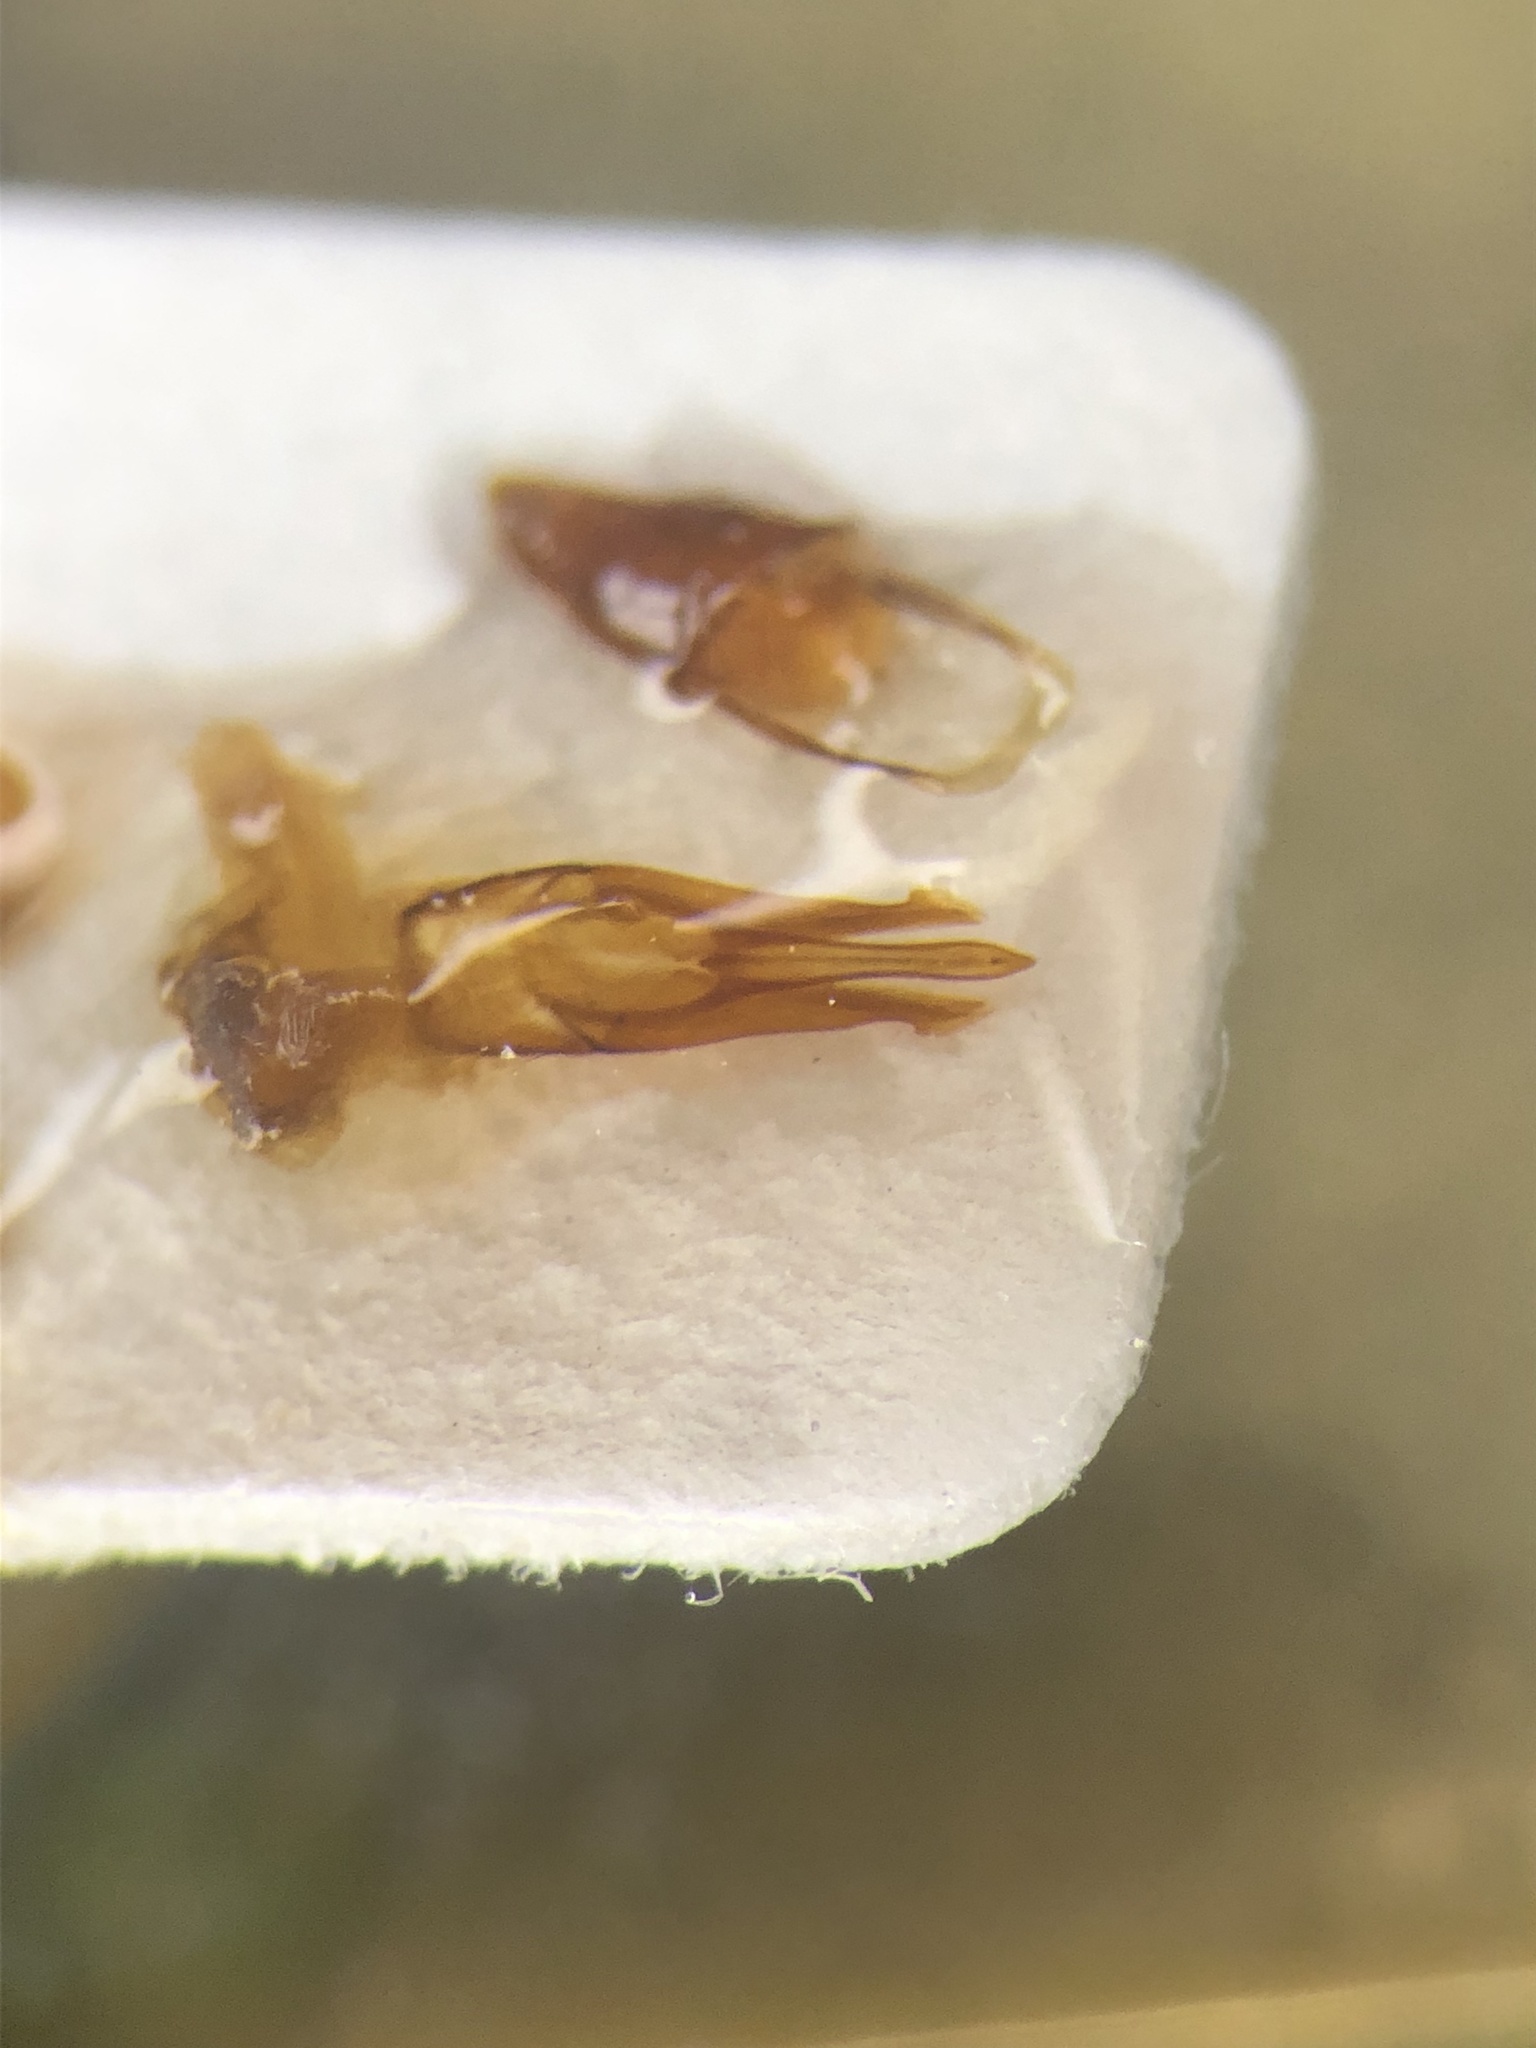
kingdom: Animalia
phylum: Arthropoda
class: Insecta
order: Coleoptera
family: Elateridae
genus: Melanotus
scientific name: Melanotus similis
